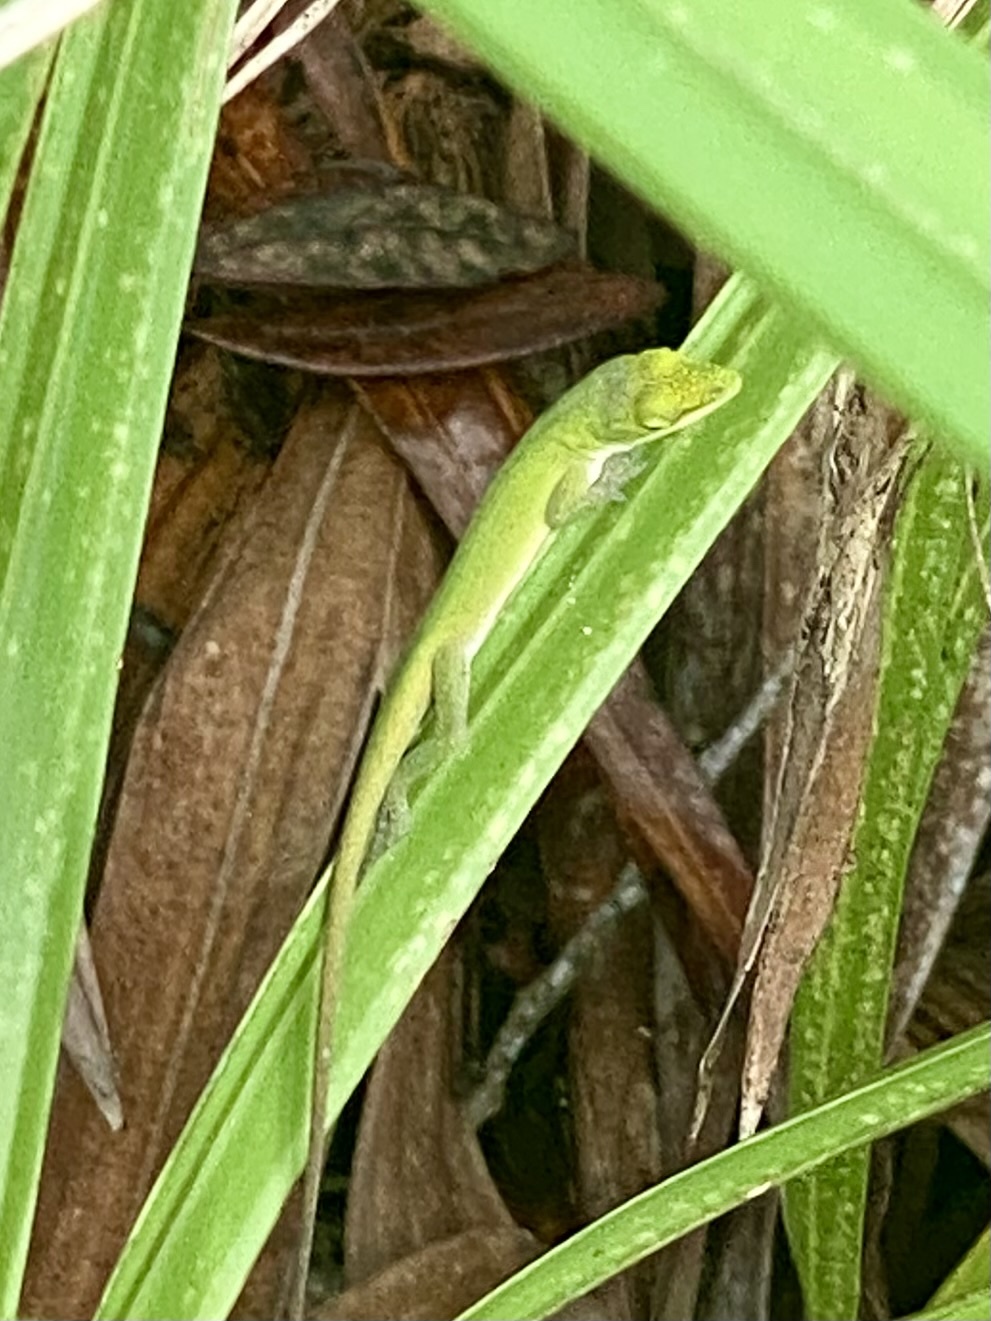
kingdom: Animalia
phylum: Chordata
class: Squamata
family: Dactyloidae
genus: Anolis
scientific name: Anolis carolinensis
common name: Green anole
